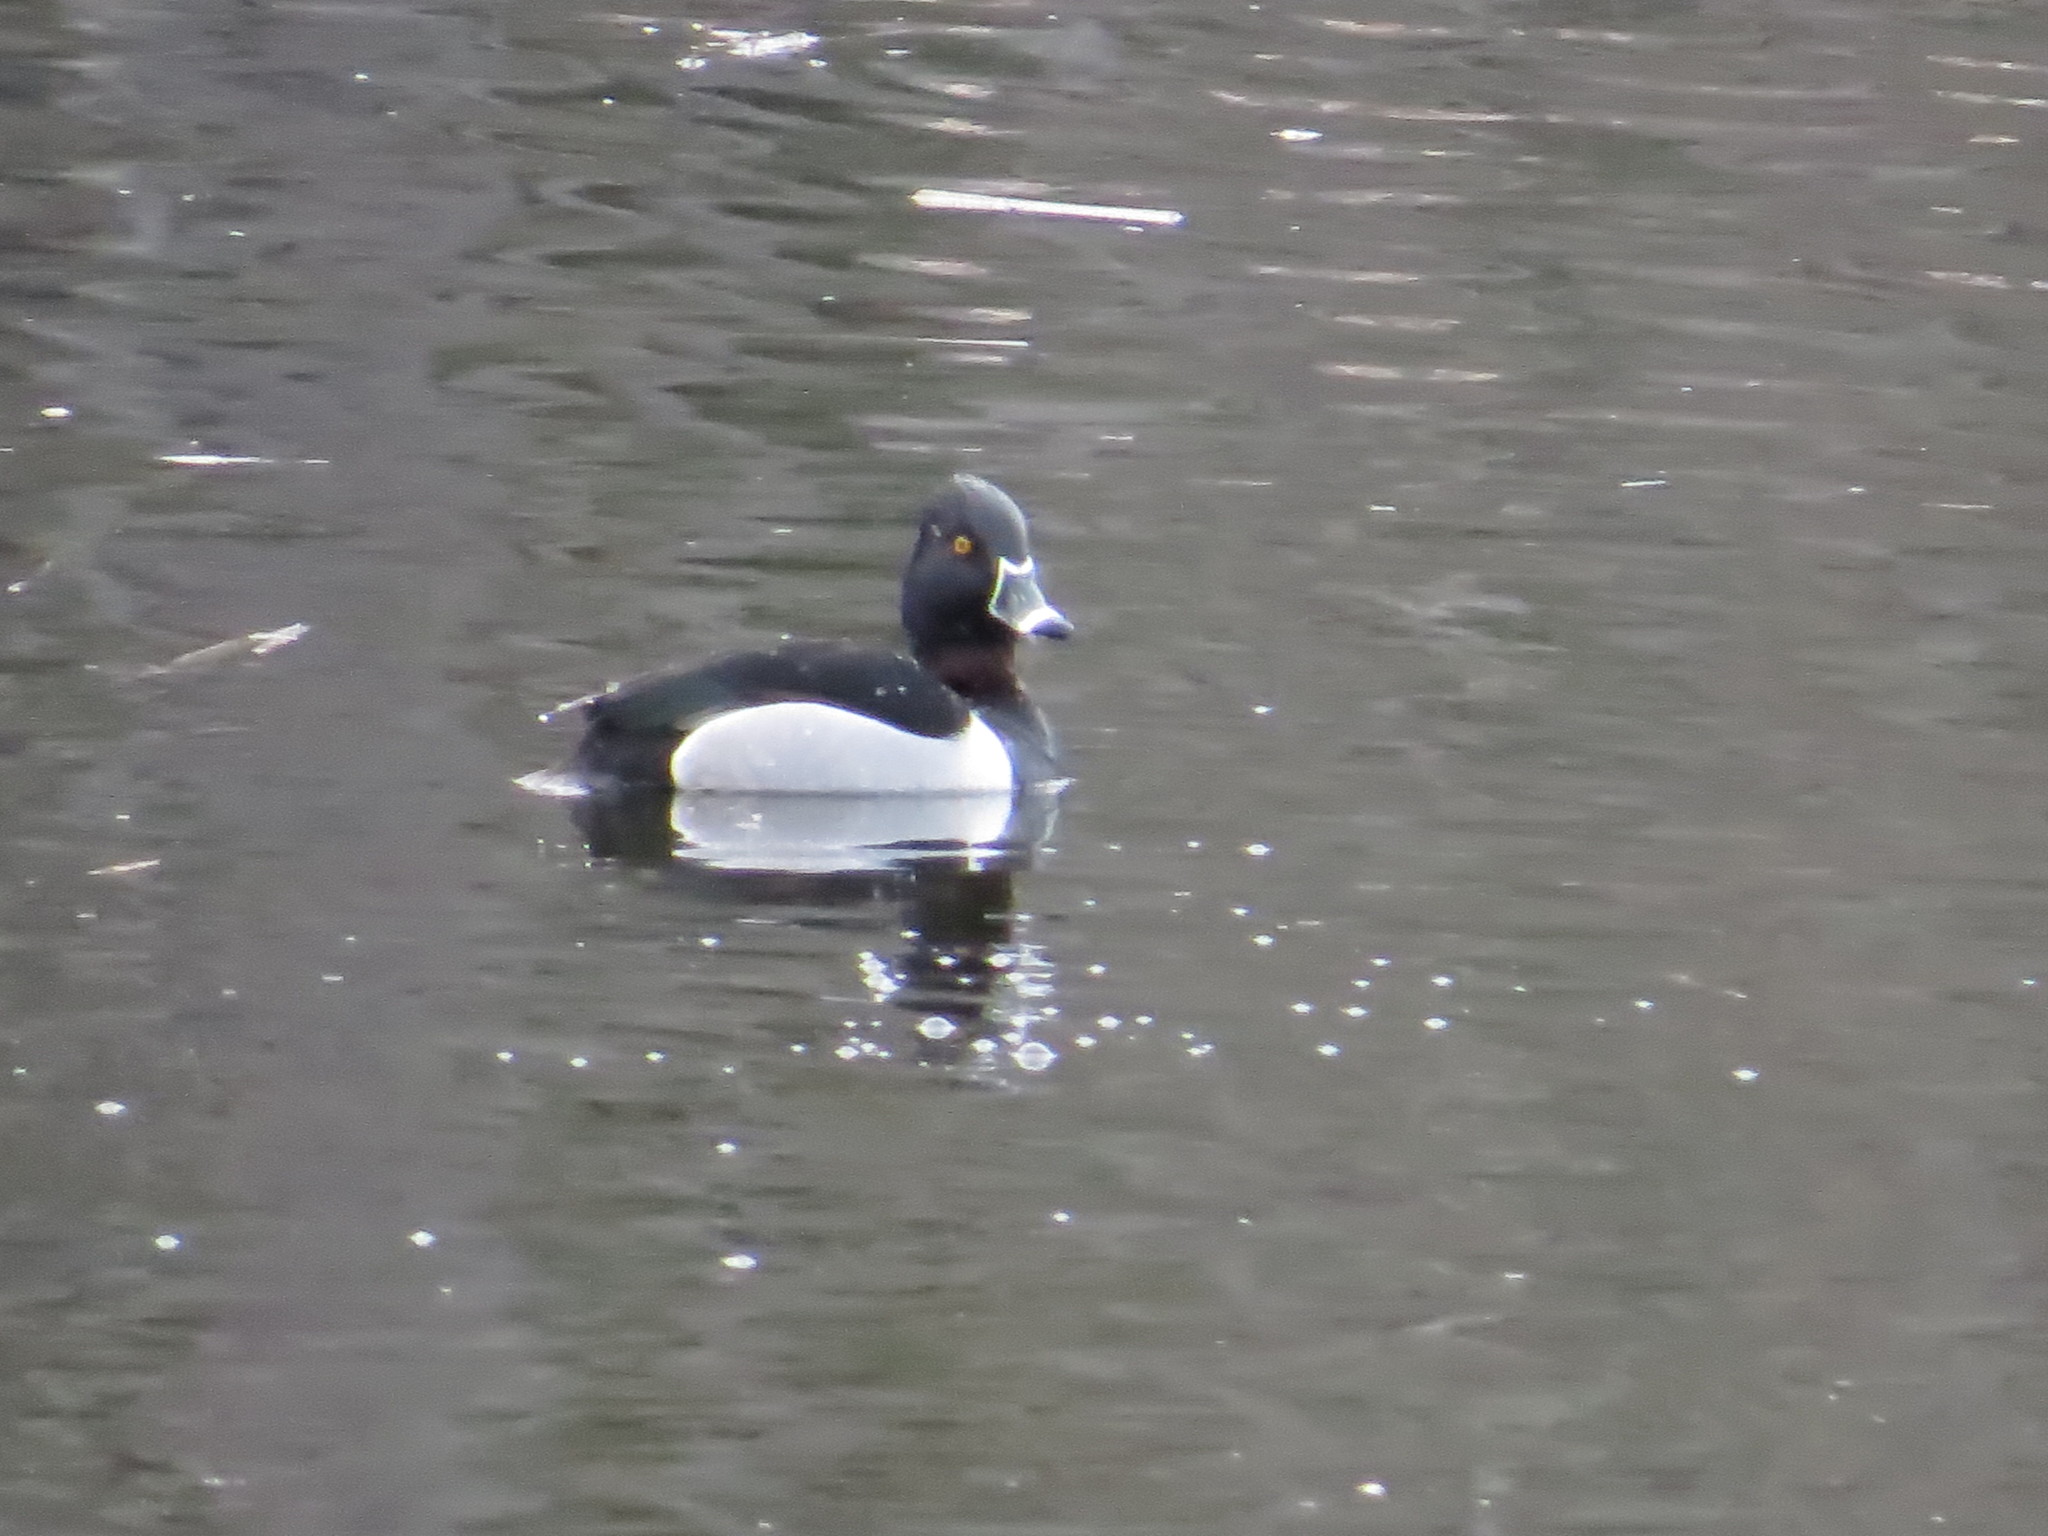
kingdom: Animalia
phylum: Chordata
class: Aves
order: Anseriformes
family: Anatidae
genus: Aythya
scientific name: Aythya collaris
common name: Ring-necked duck
